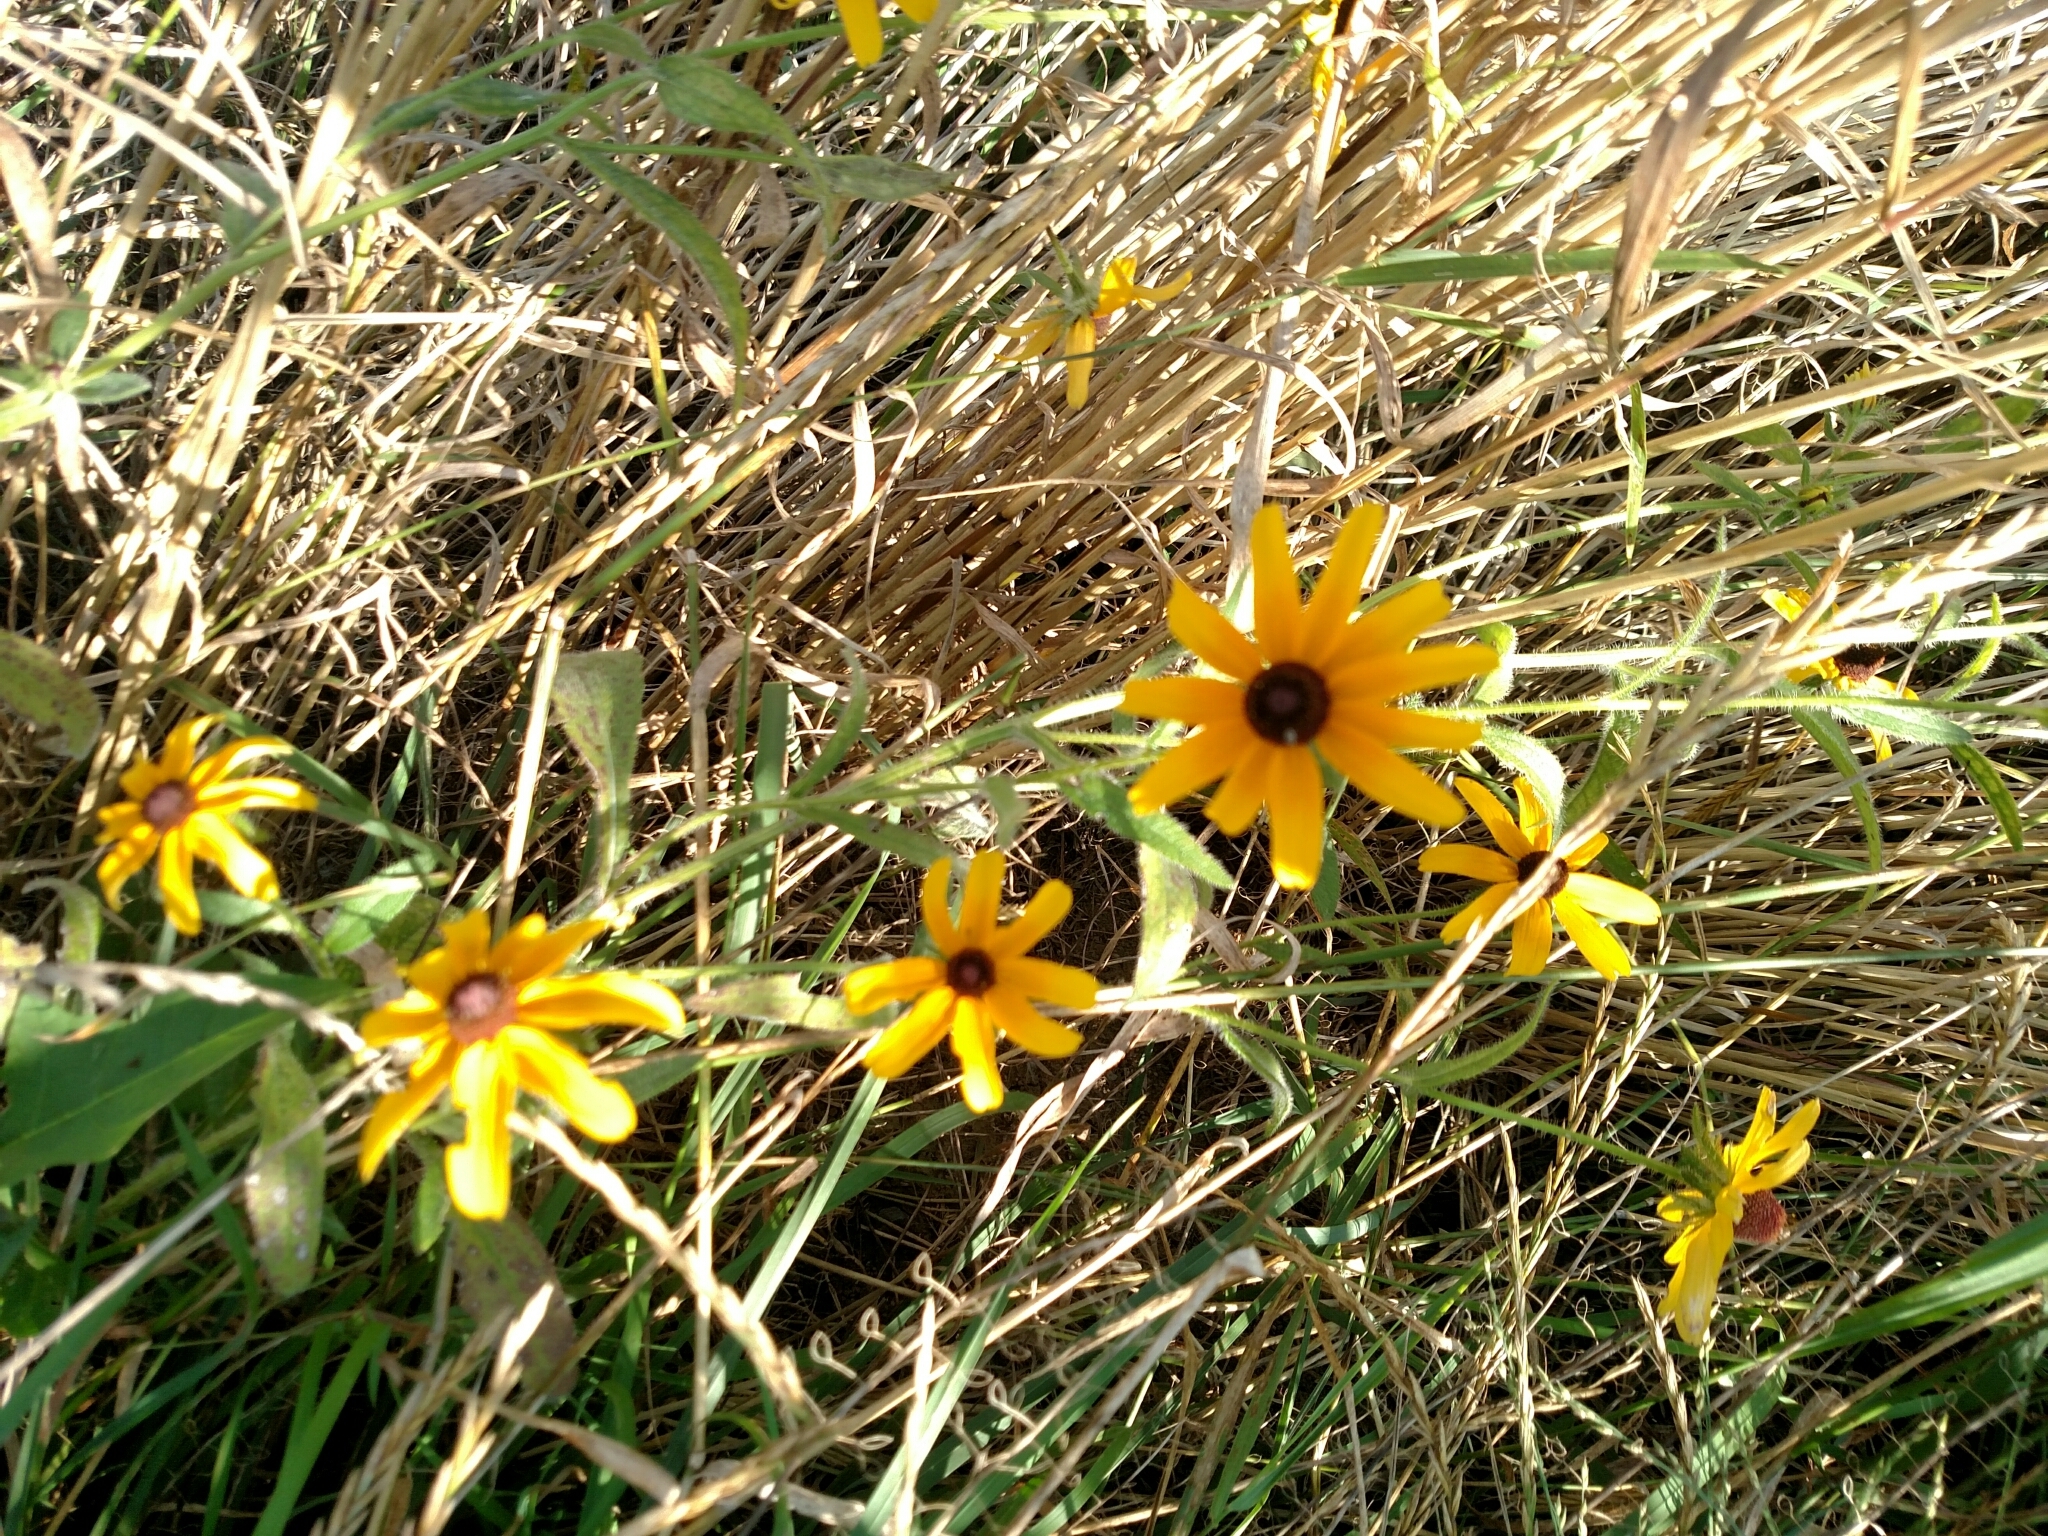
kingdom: Plantae
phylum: Tracheophyta
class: Magnoliopsida
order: Asterales
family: Asteraceae
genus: Rudbeckia
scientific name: Rudbeckia hirta
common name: Black-eyed-susan
